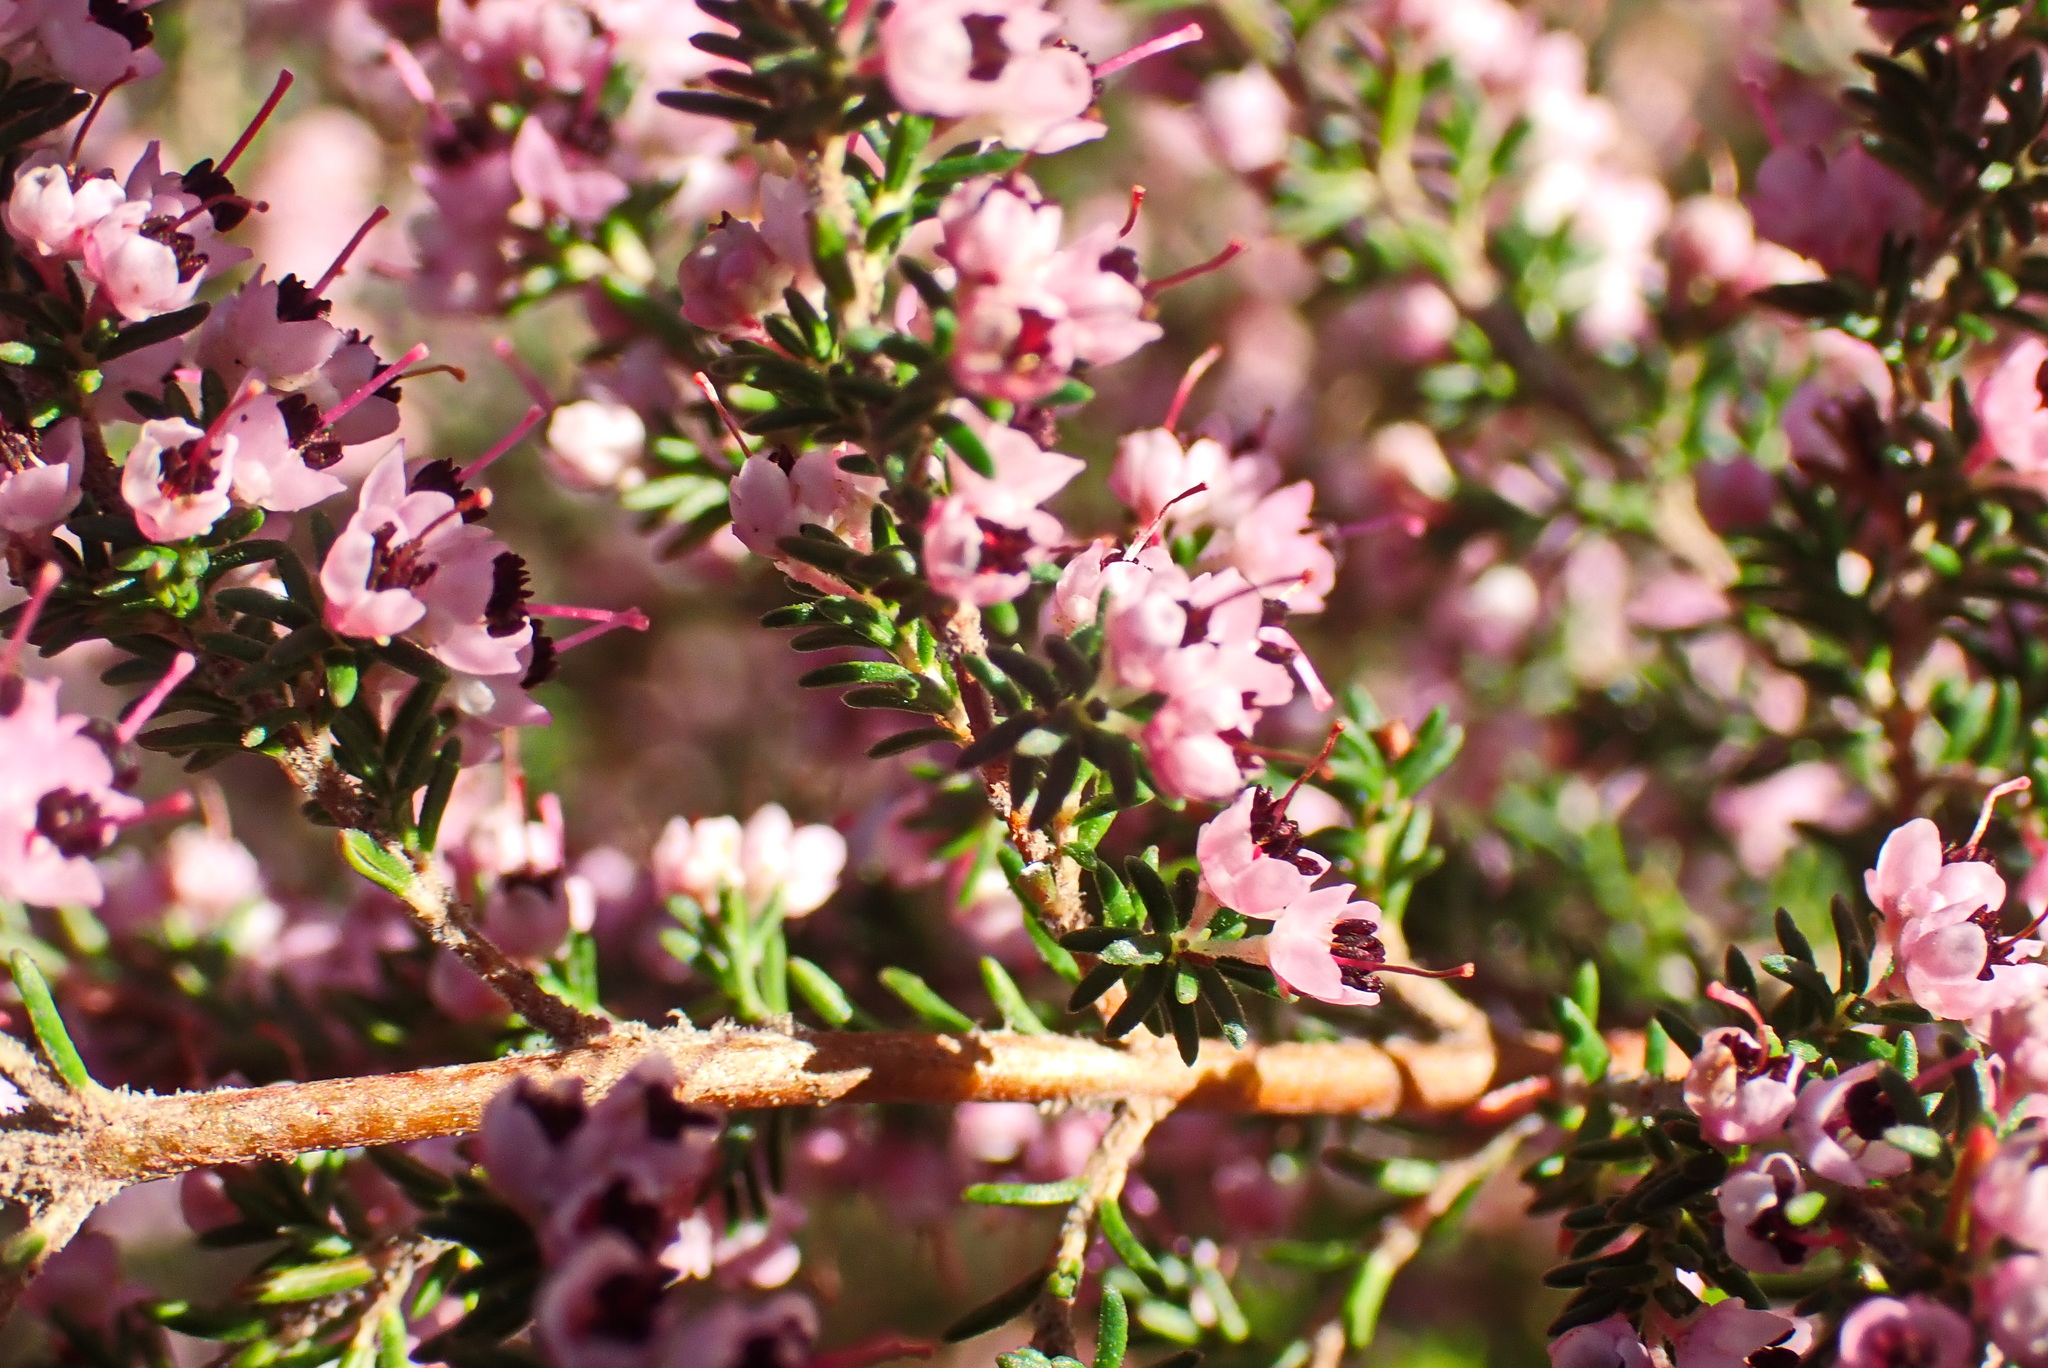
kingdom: Plantae
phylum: Tracheophyta
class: Magnoliopsida
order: Ericales
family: Ericaceae
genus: Erica
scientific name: Erica sparsa
